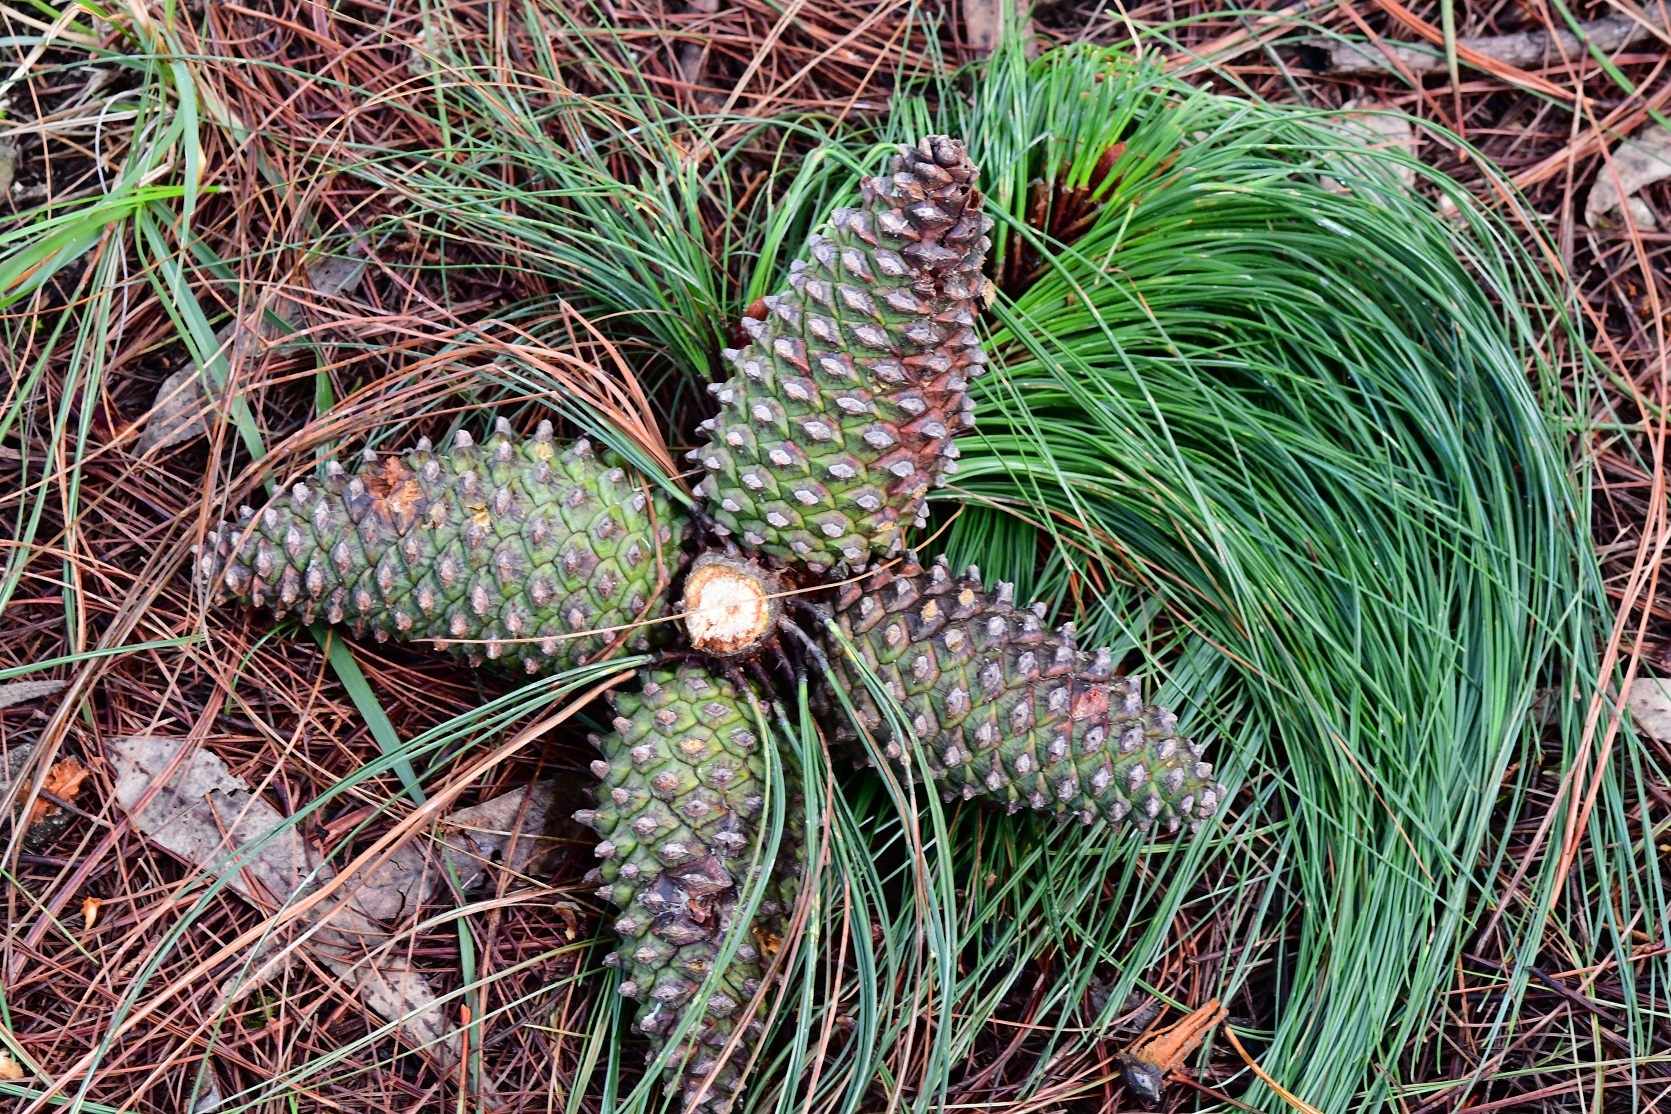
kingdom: Plantae
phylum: Tracheophyta
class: Pinopsida
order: Pinales
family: Pinaceae
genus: Pinus
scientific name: Pinus pseudostrobus
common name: False weymouth pine
